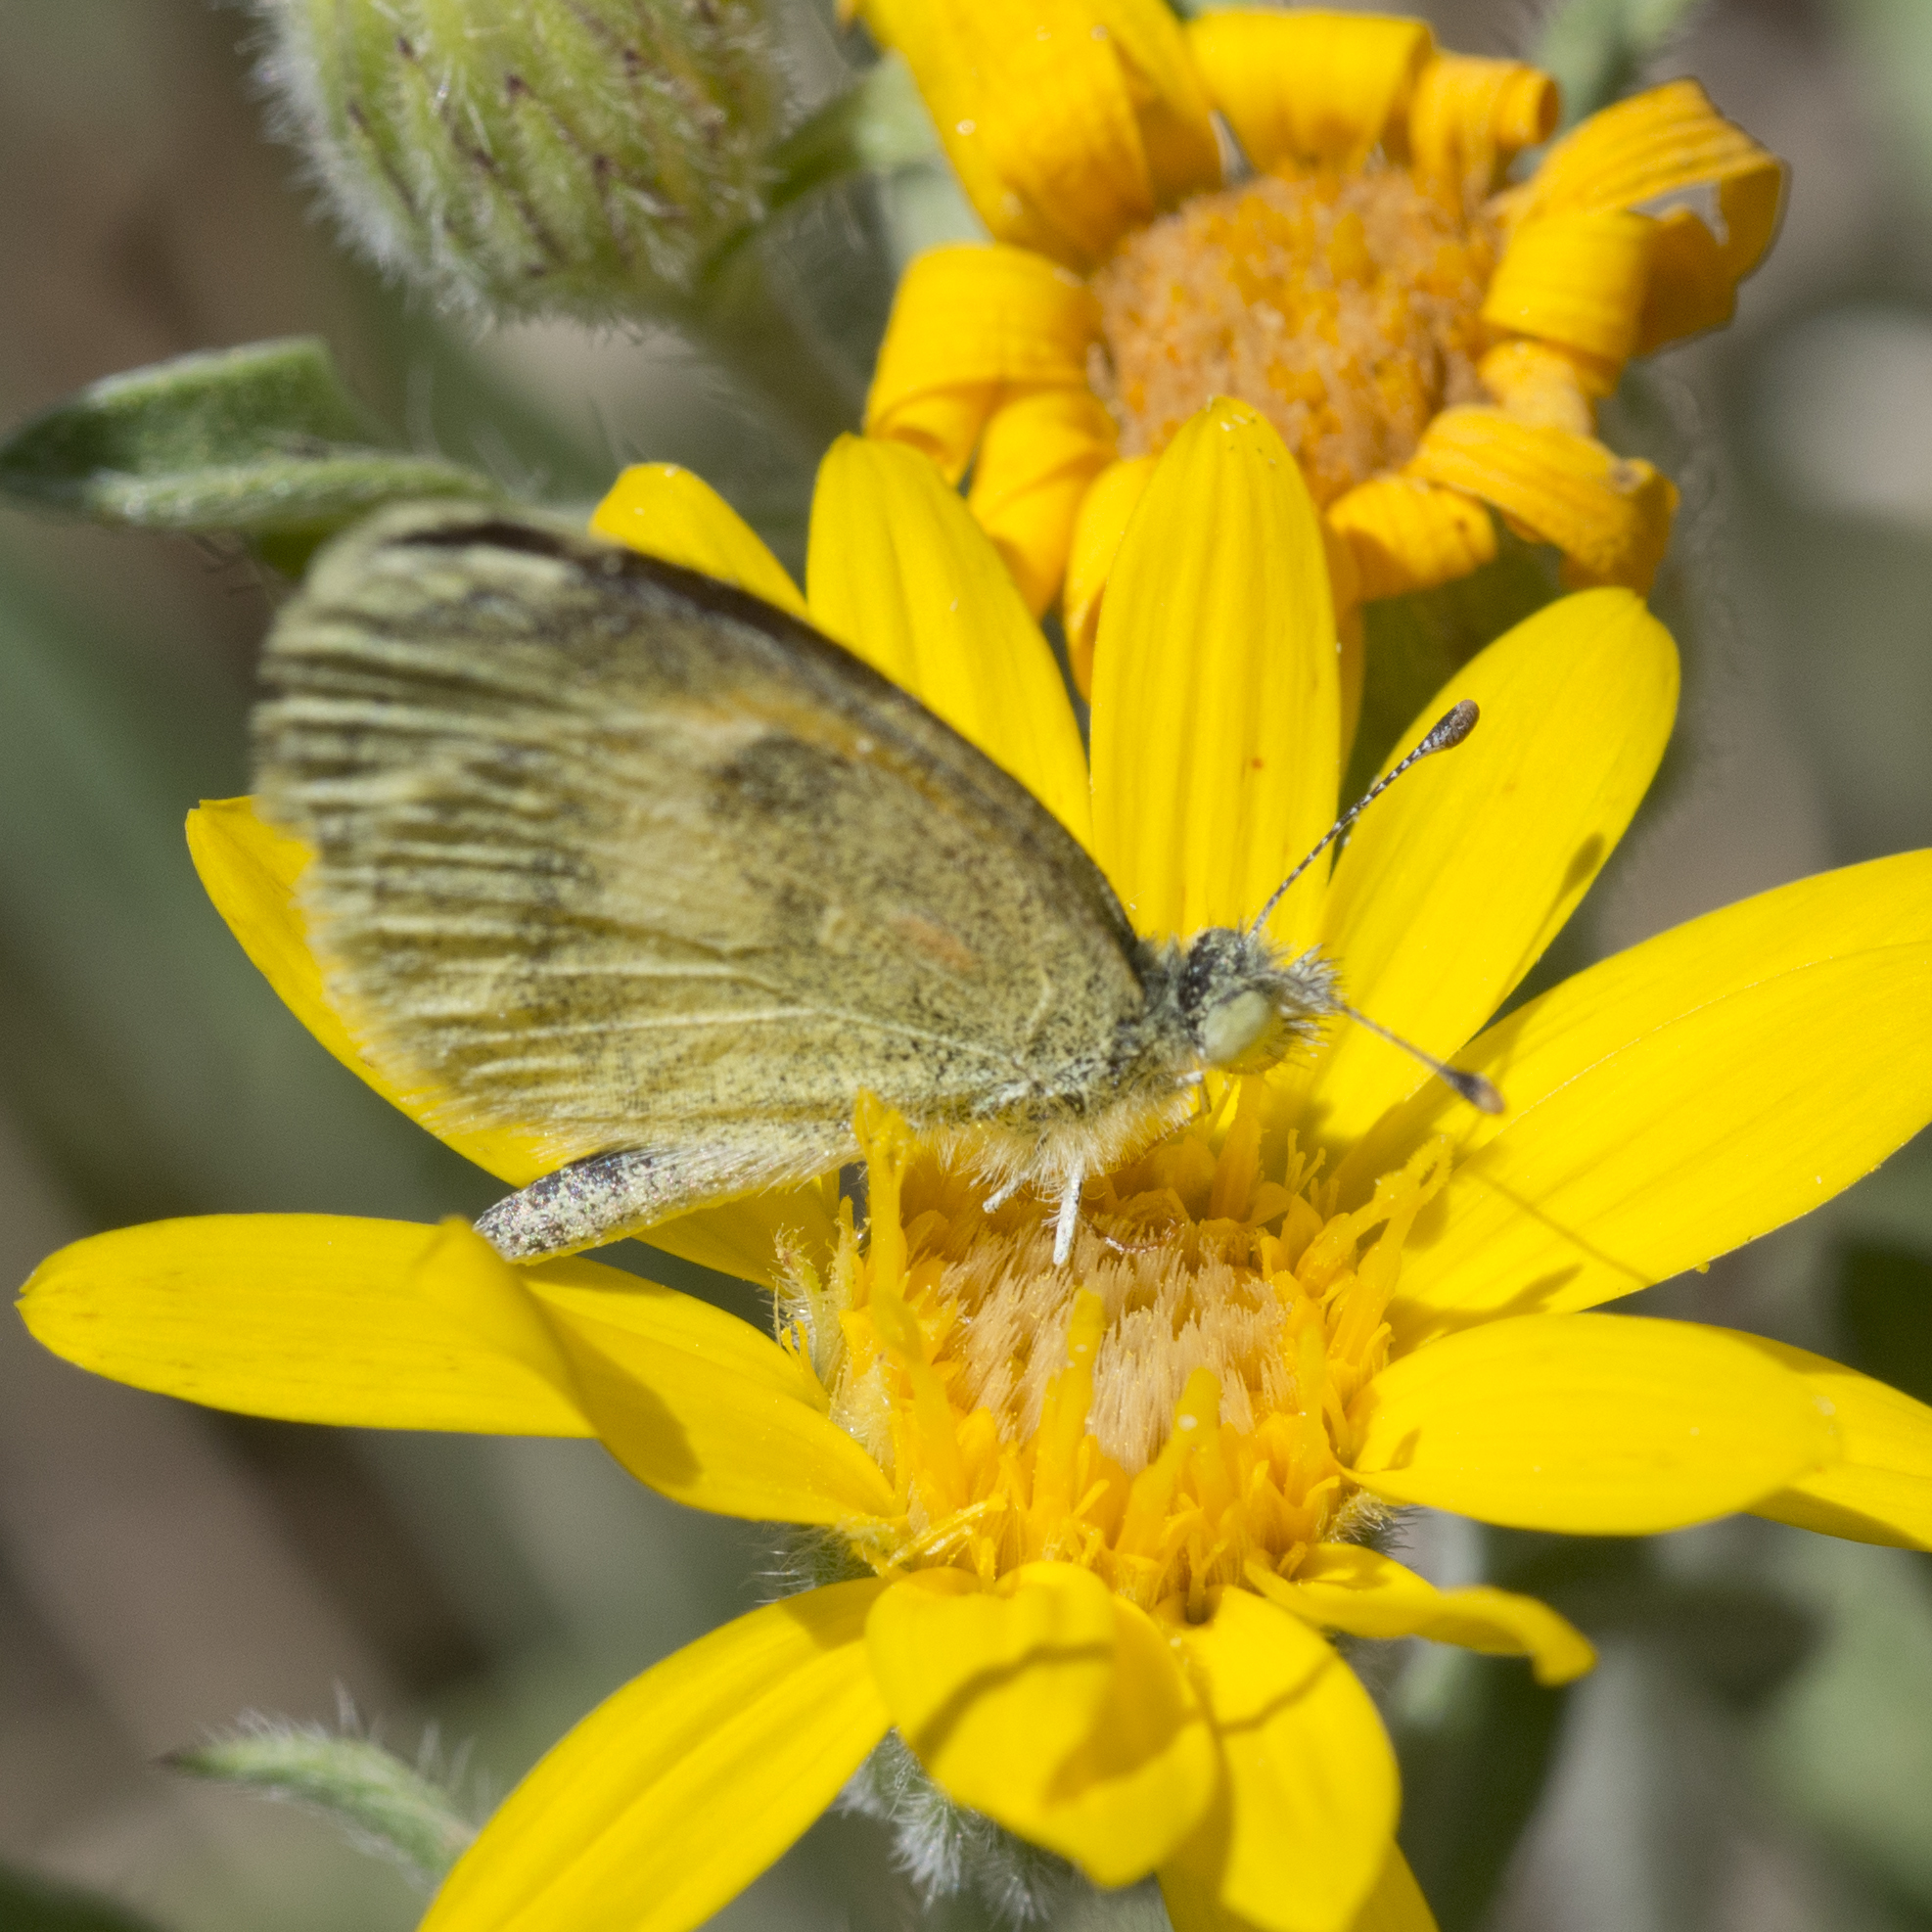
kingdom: Animalia
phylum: Arthropoda
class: Insecta
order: Lepidoptera
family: Pieridae
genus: Nathalis
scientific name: Nathalis iole
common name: Dainty sulphur
